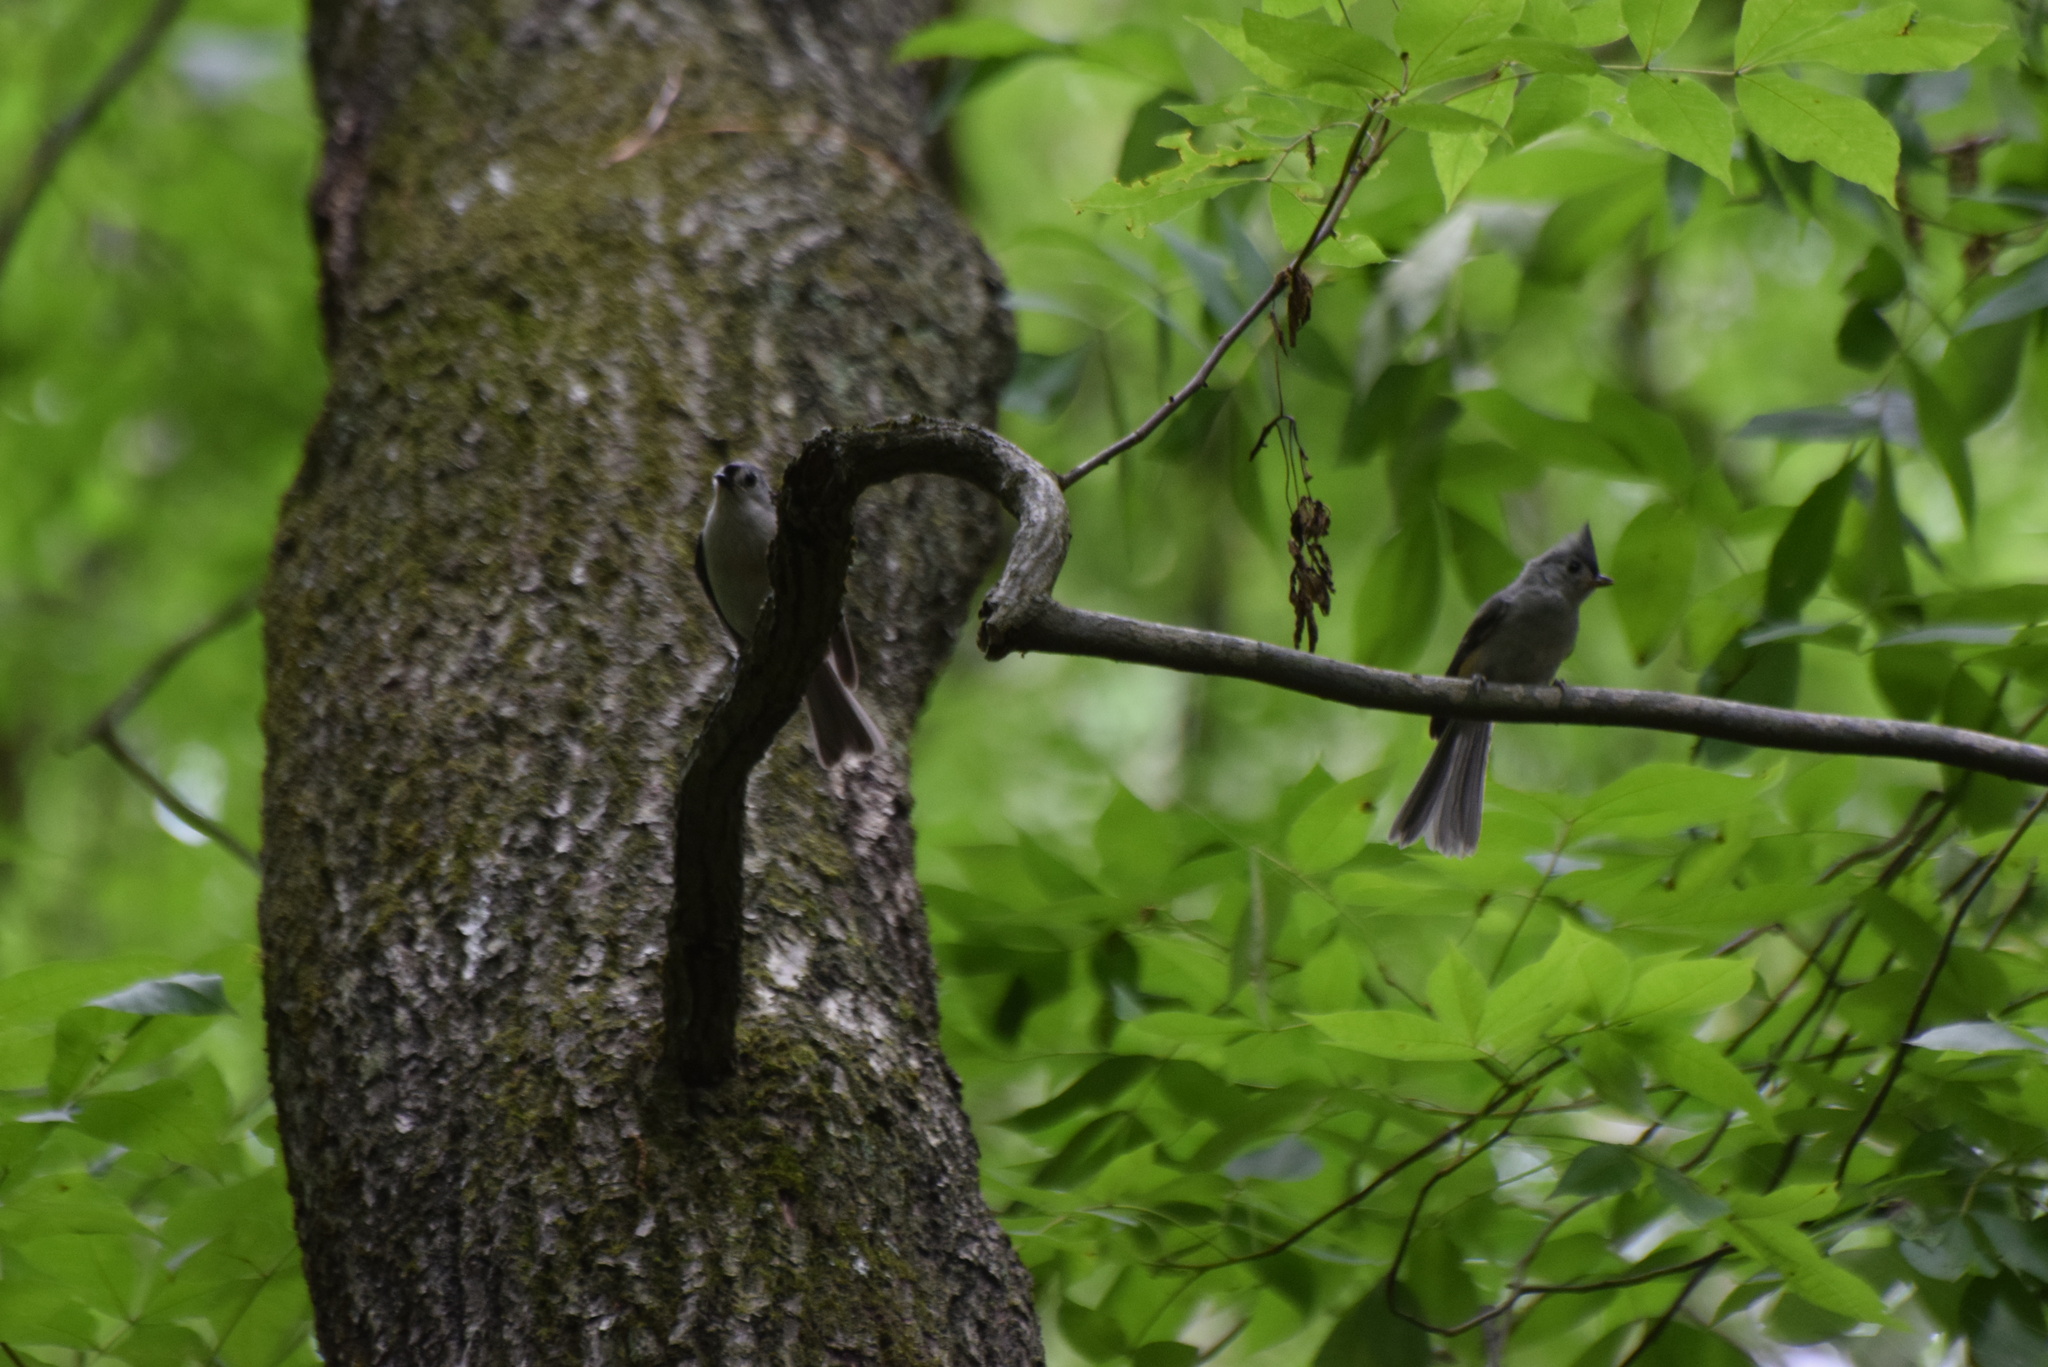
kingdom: Animalia
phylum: Chordata
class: Aves
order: Passeriformes
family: Paridae
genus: Baeolophus
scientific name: Baeolophus bicolor
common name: Tufted titmouse
